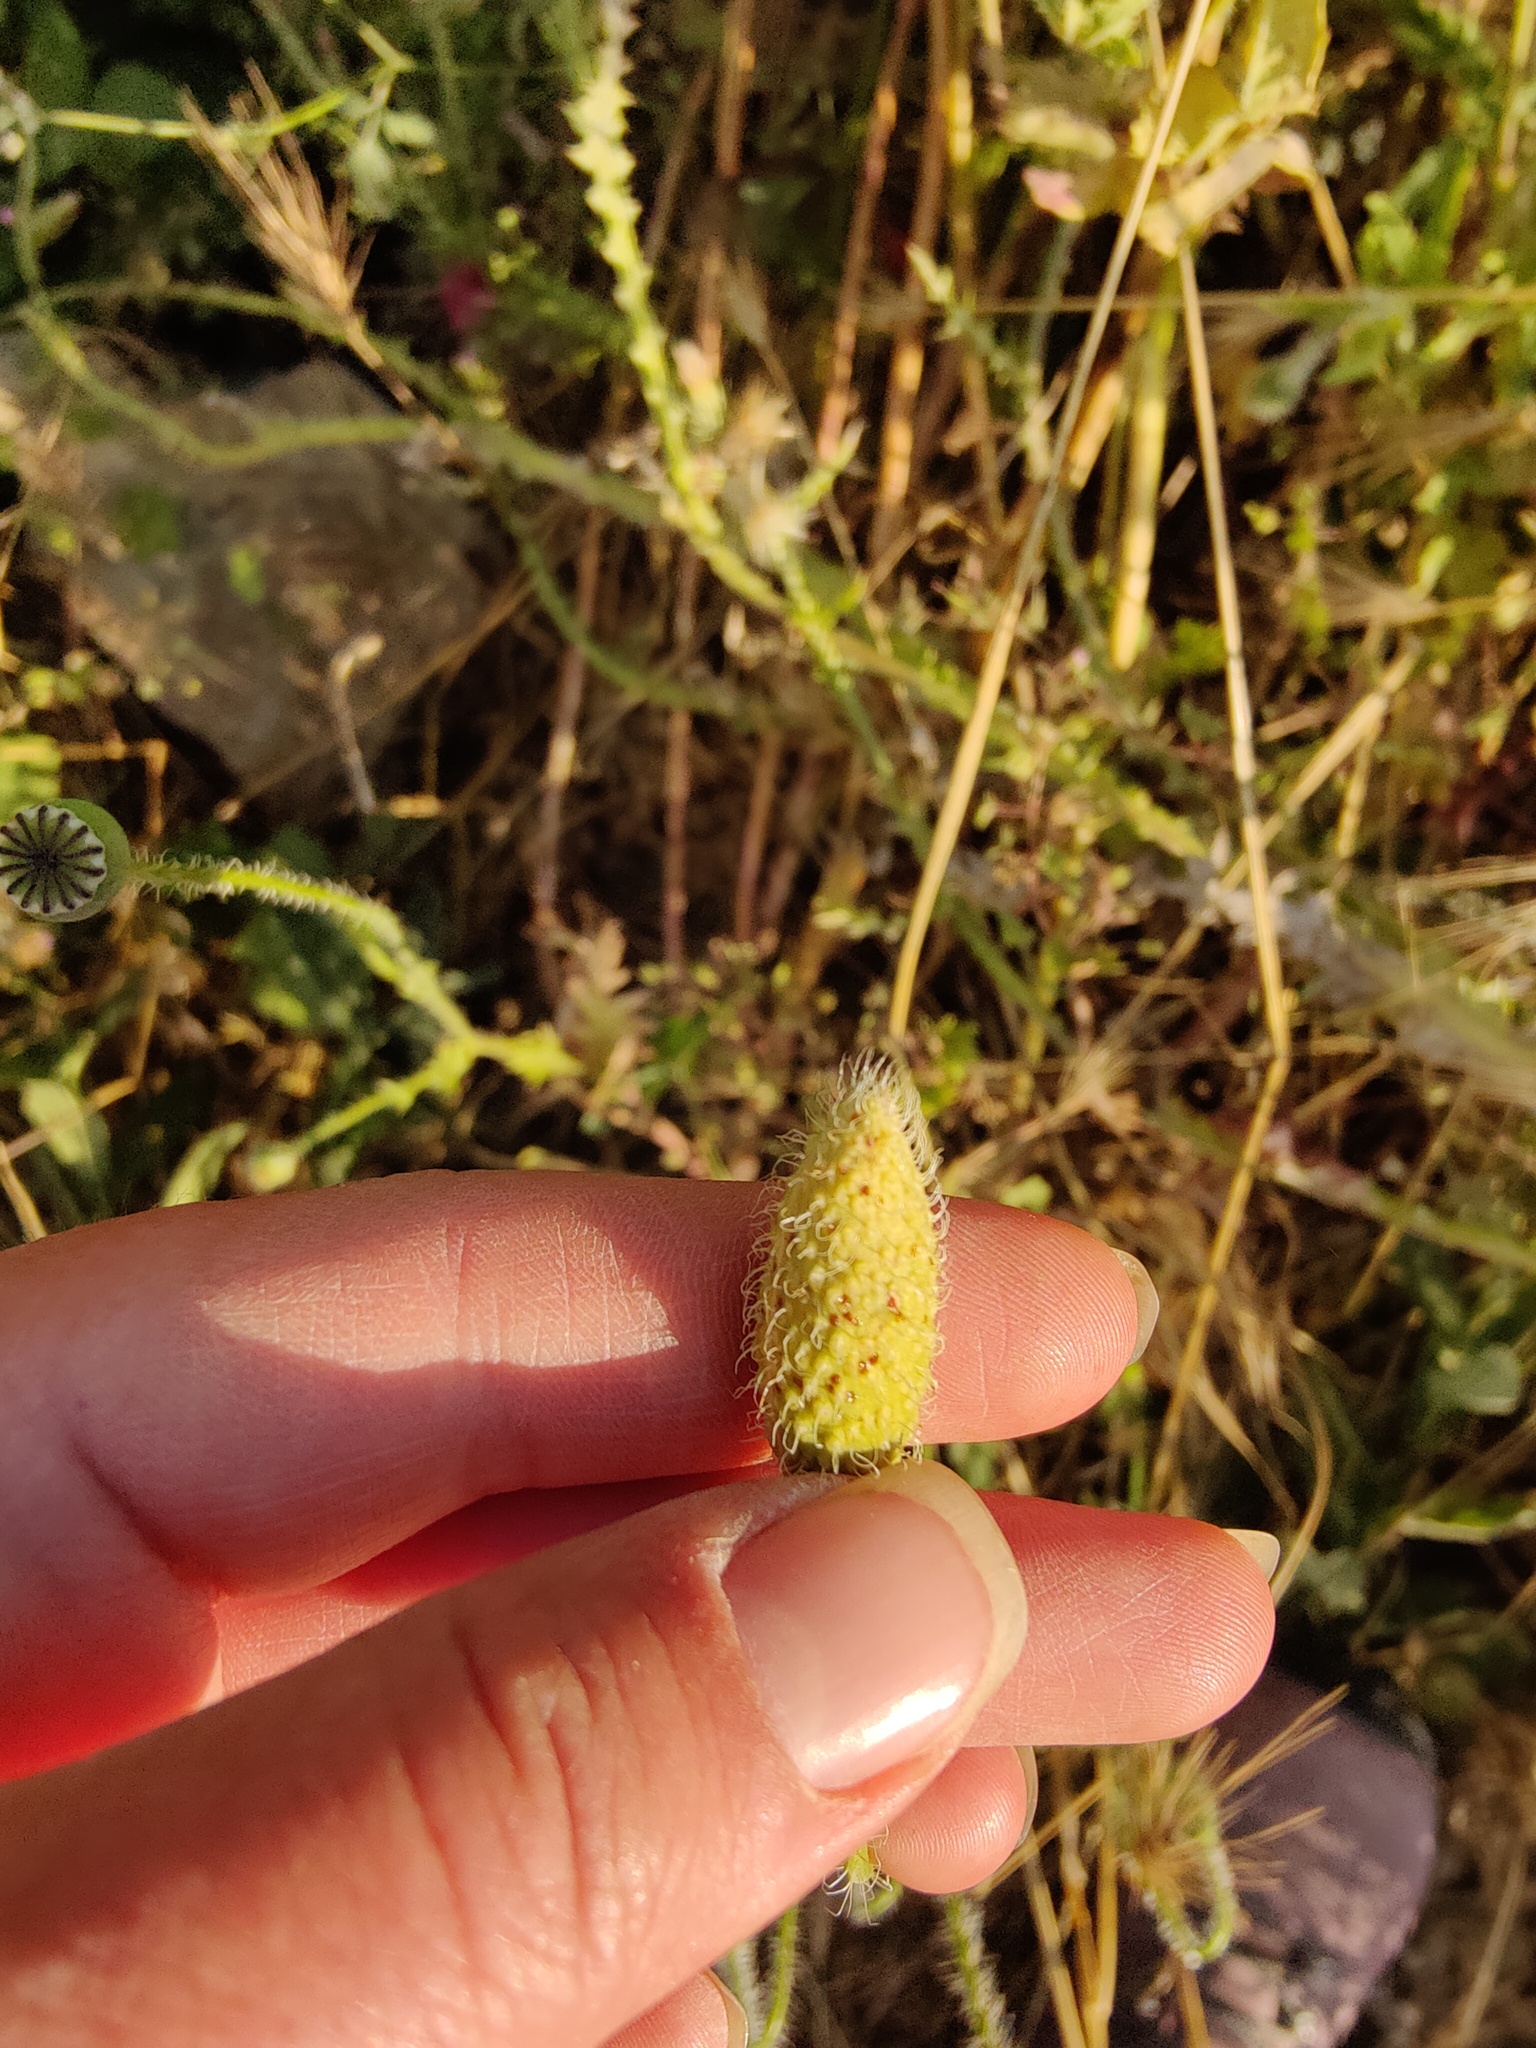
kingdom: Plantae
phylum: Tracheophyta
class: Magnoliopsida
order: Ranunculales
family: Papaveraceae
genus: Papaver
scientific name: Papaver rhoeas
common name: Corn poppy
